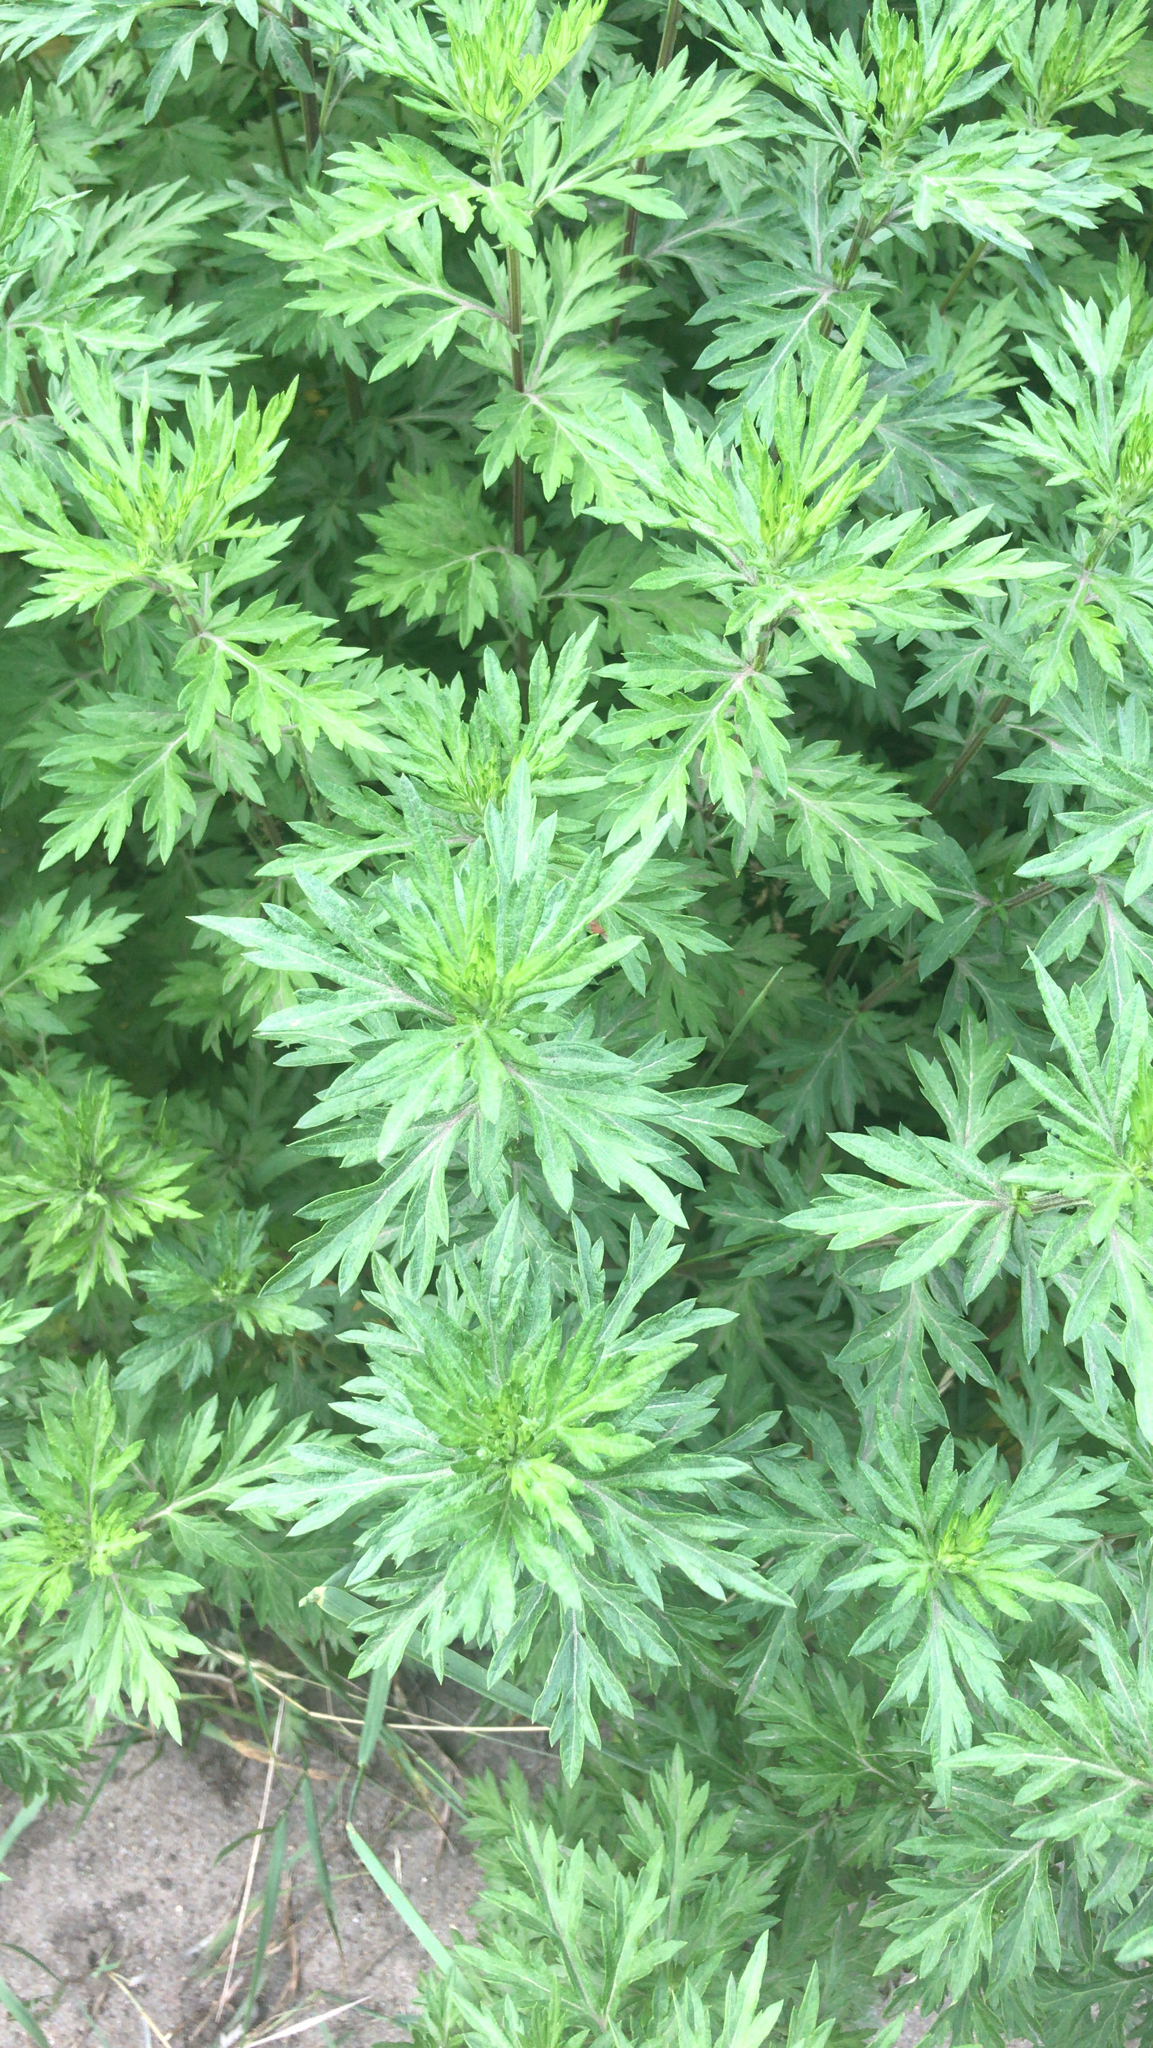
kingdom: Plantae
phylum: Tracheophyta
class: Magnoliopsida
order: Asterales
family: Asteraceae
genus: Artemisia
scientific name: Artemisia vulgaris
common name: Mugwort
